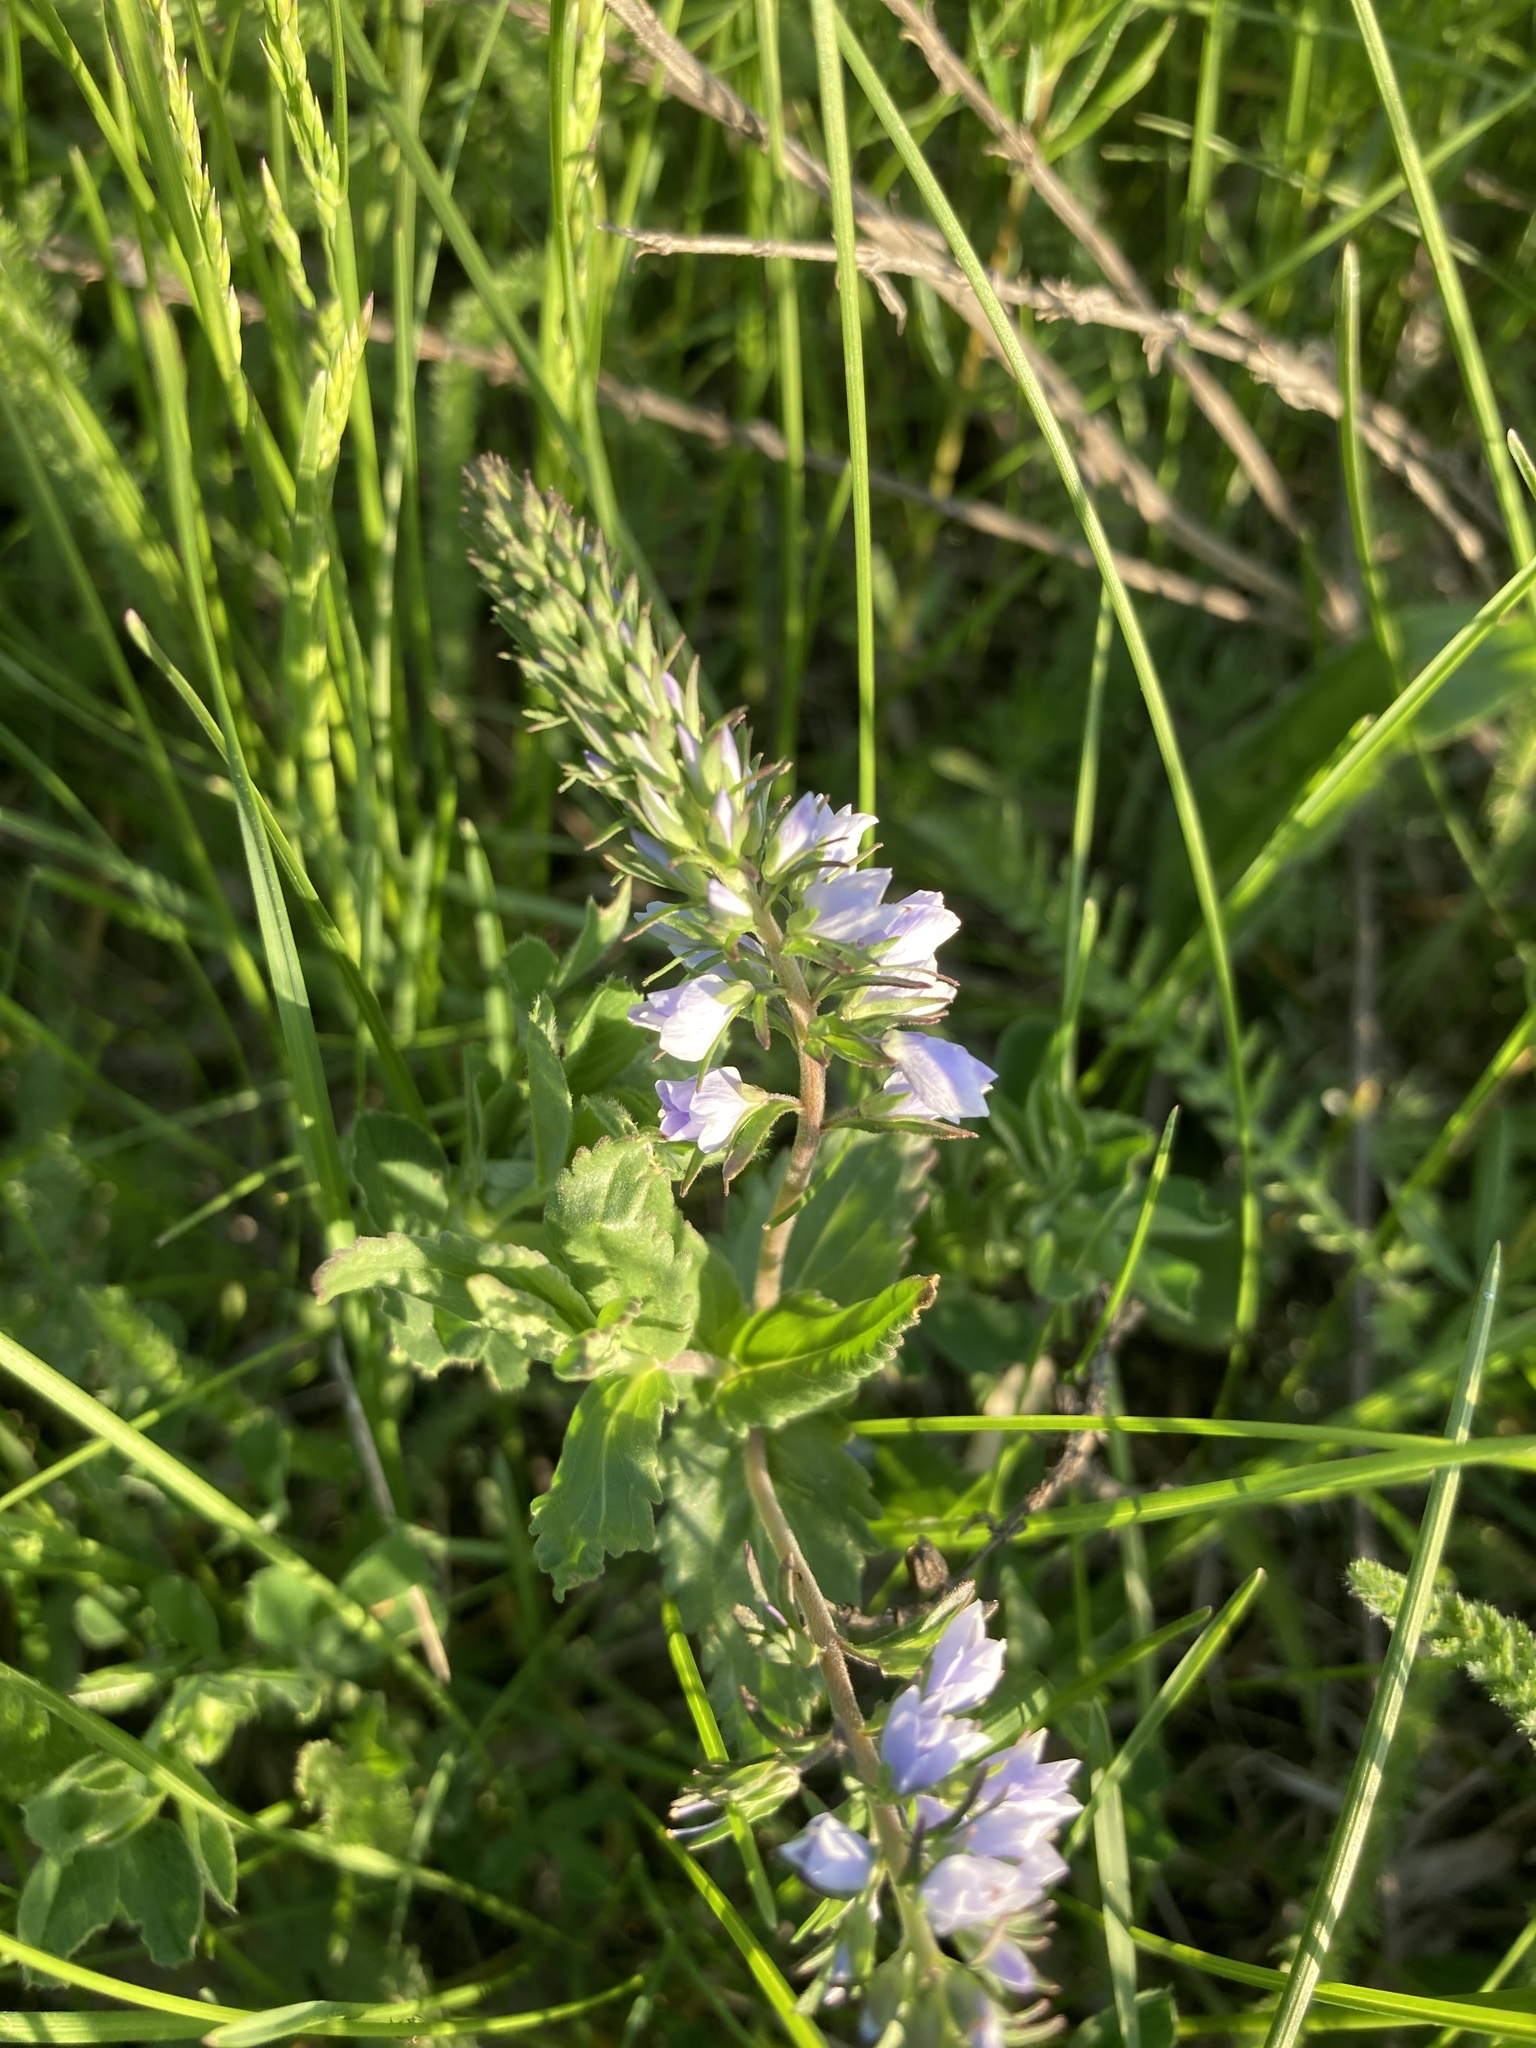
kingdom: Plantae
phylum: Tracheophyta
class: Magnoliopsida
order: Lamiales
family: Plantaginaceae
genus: Veronica
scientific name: Veronica prostrata
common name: Prostrate speedwell
